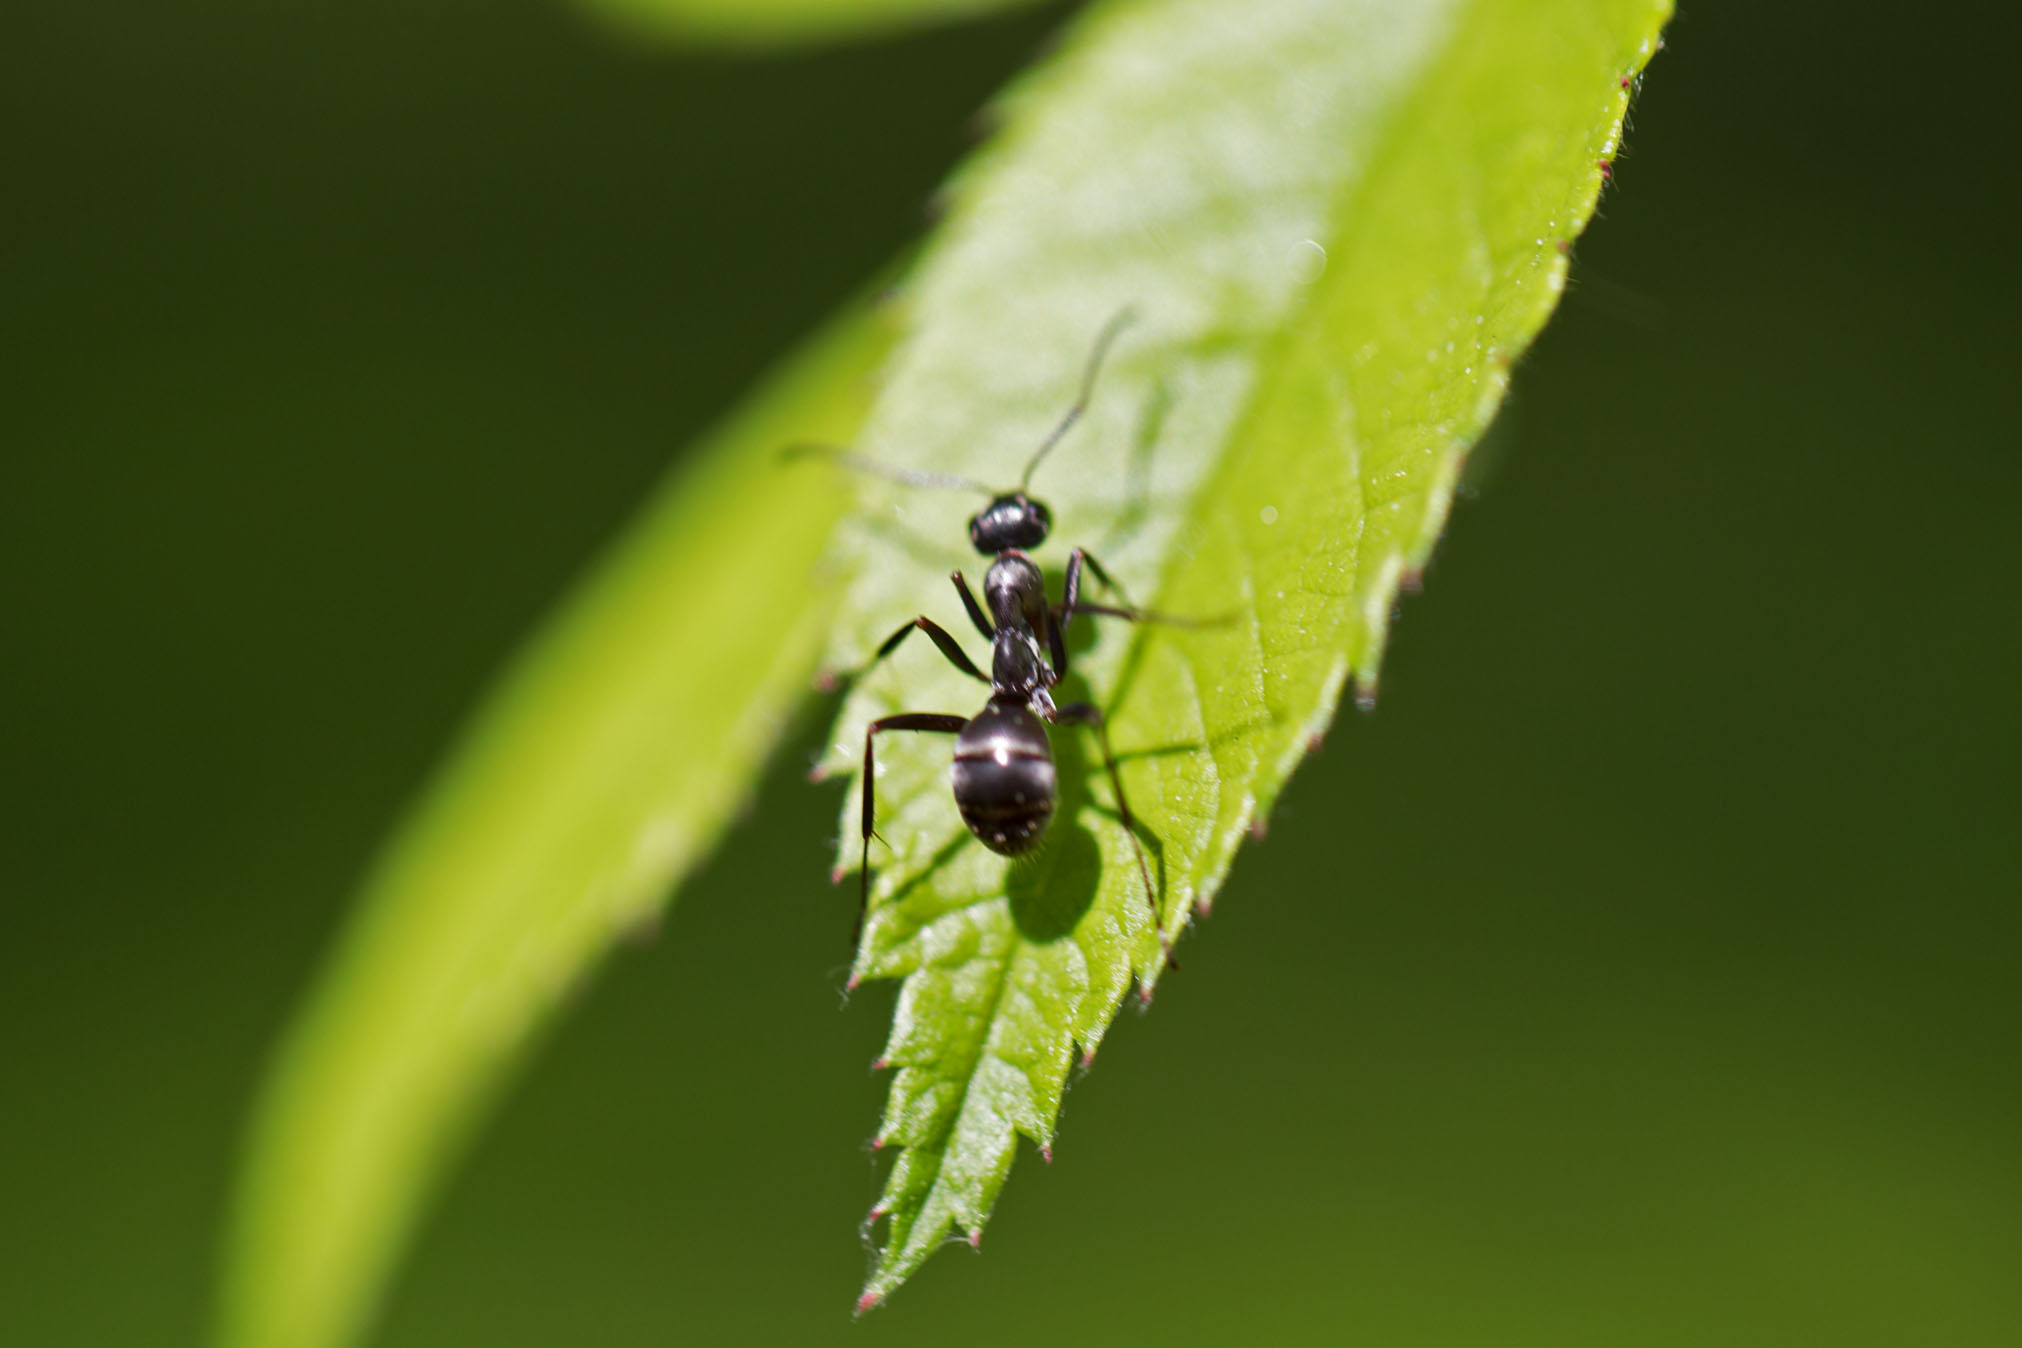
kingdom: Animalia
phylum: Arthropoda
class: Insecta
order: Hymenoptera
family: Formicidae
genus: Formica
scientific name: Formica
